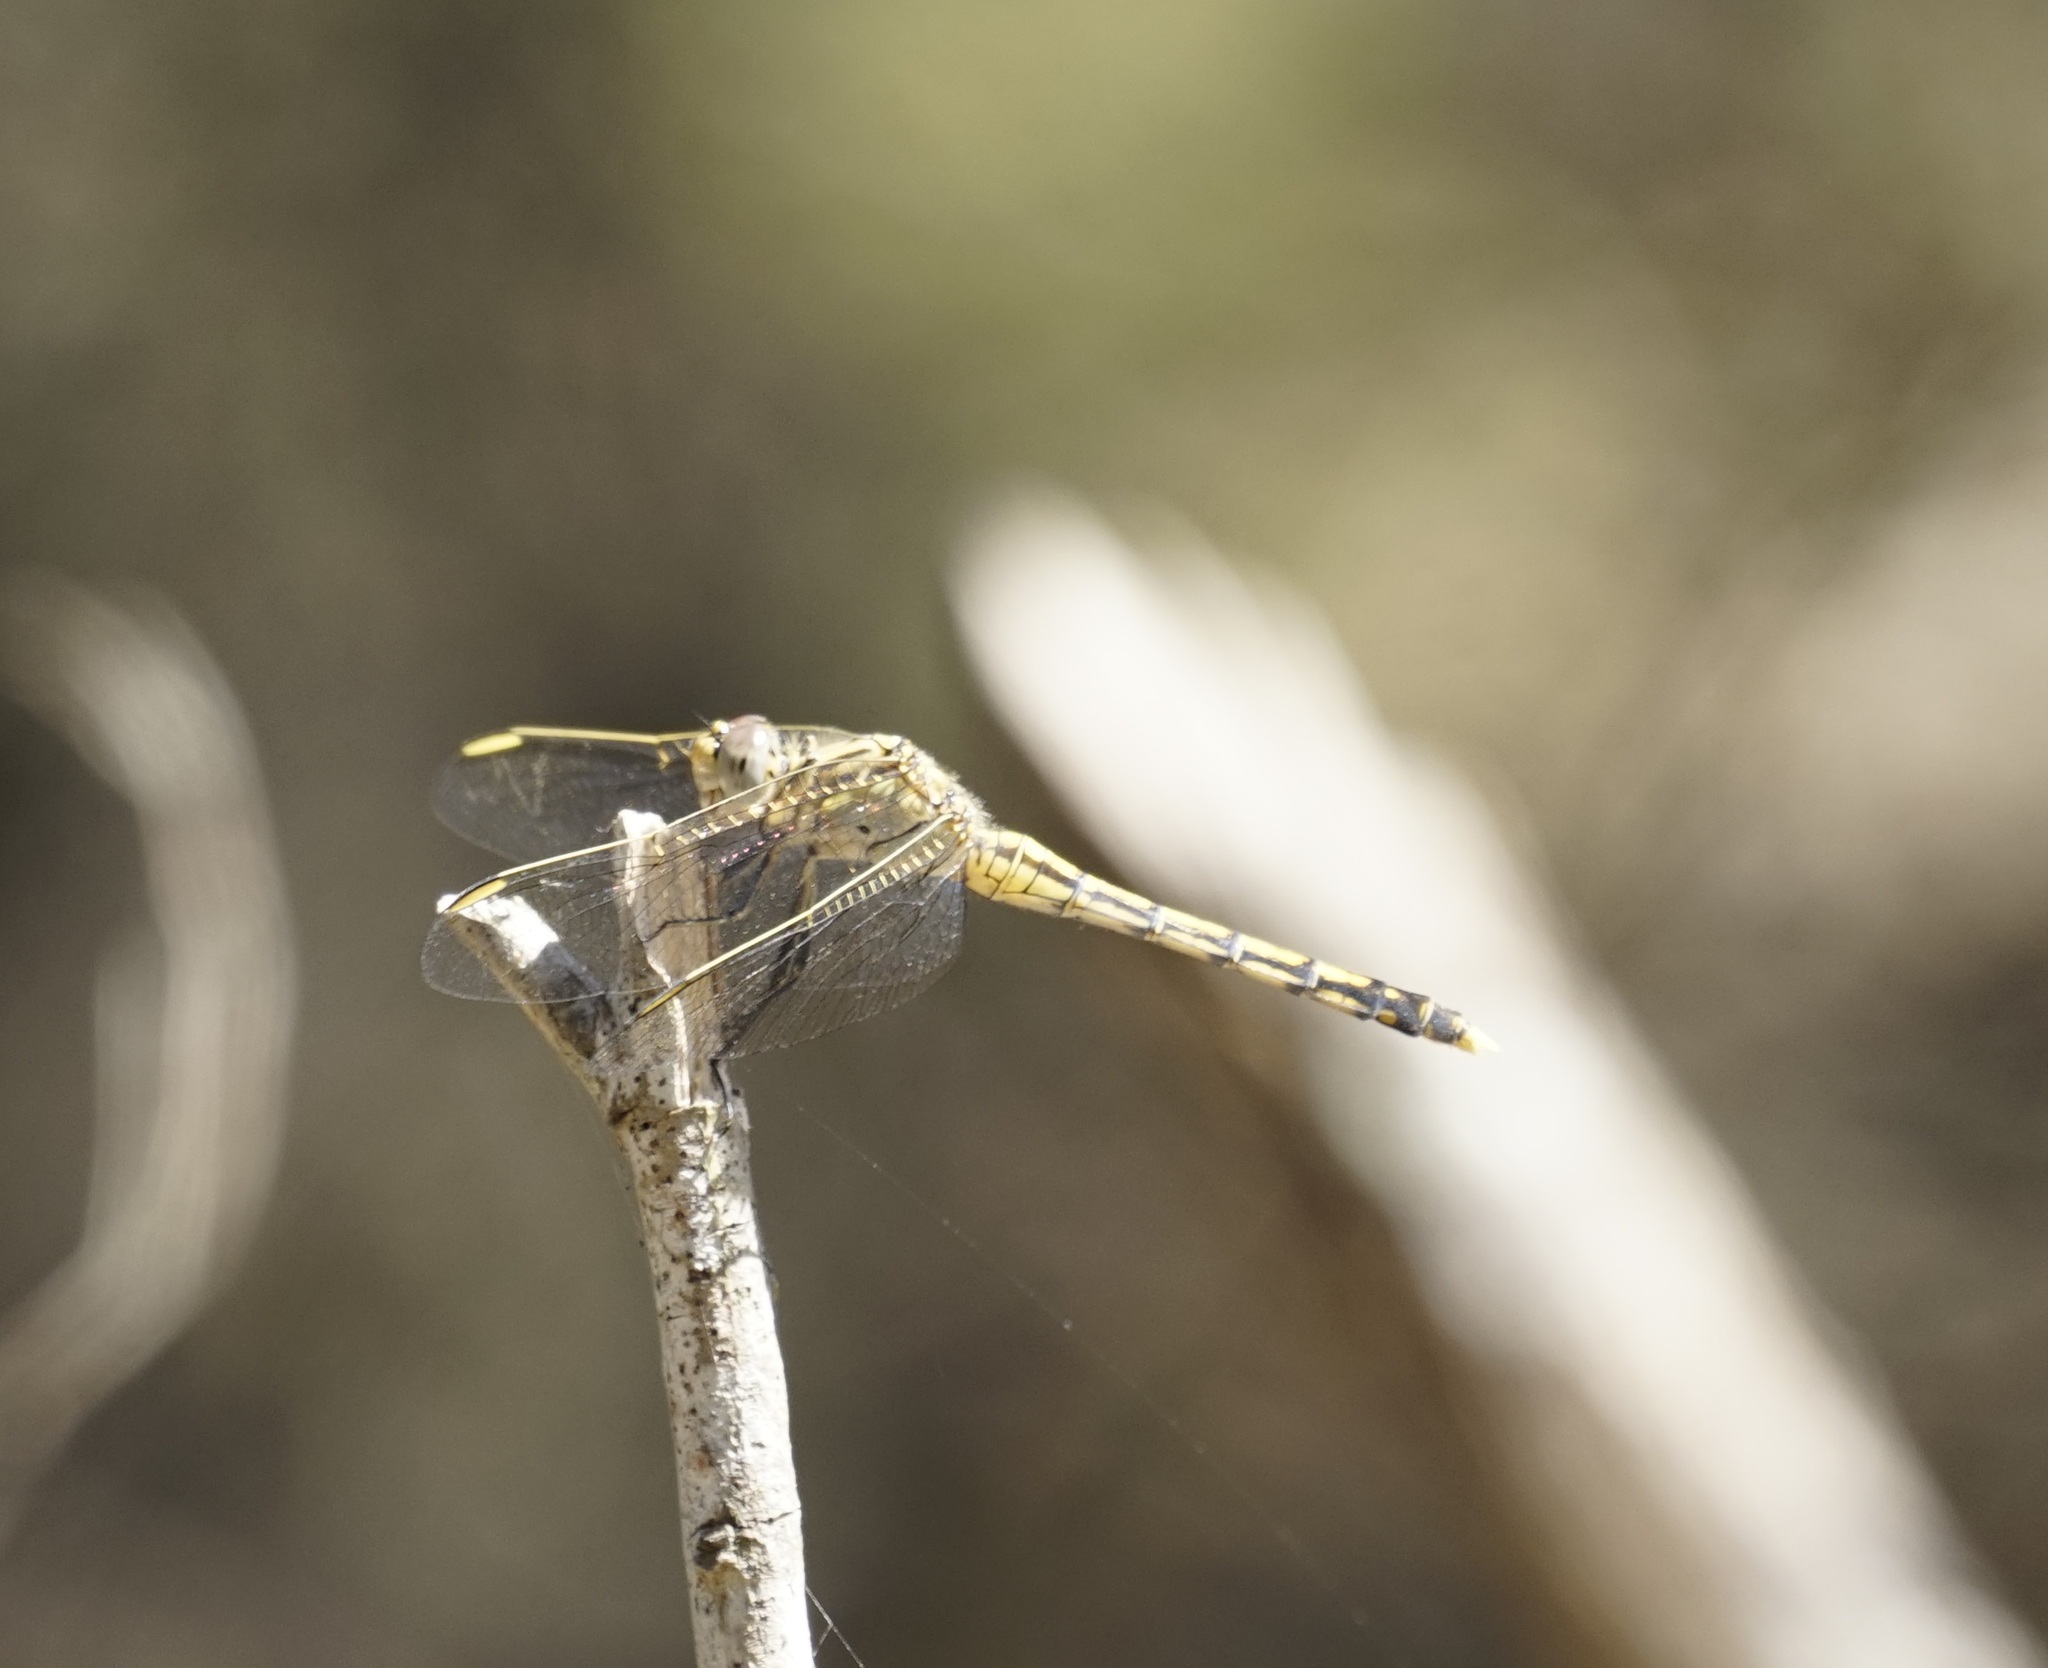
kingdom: Animalia
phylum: Arthropoda
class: Insecta
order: Odonata
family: Libellulidae
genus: Orthetrum
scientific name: Orthetrum caledonicum
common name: Blue skimmer
